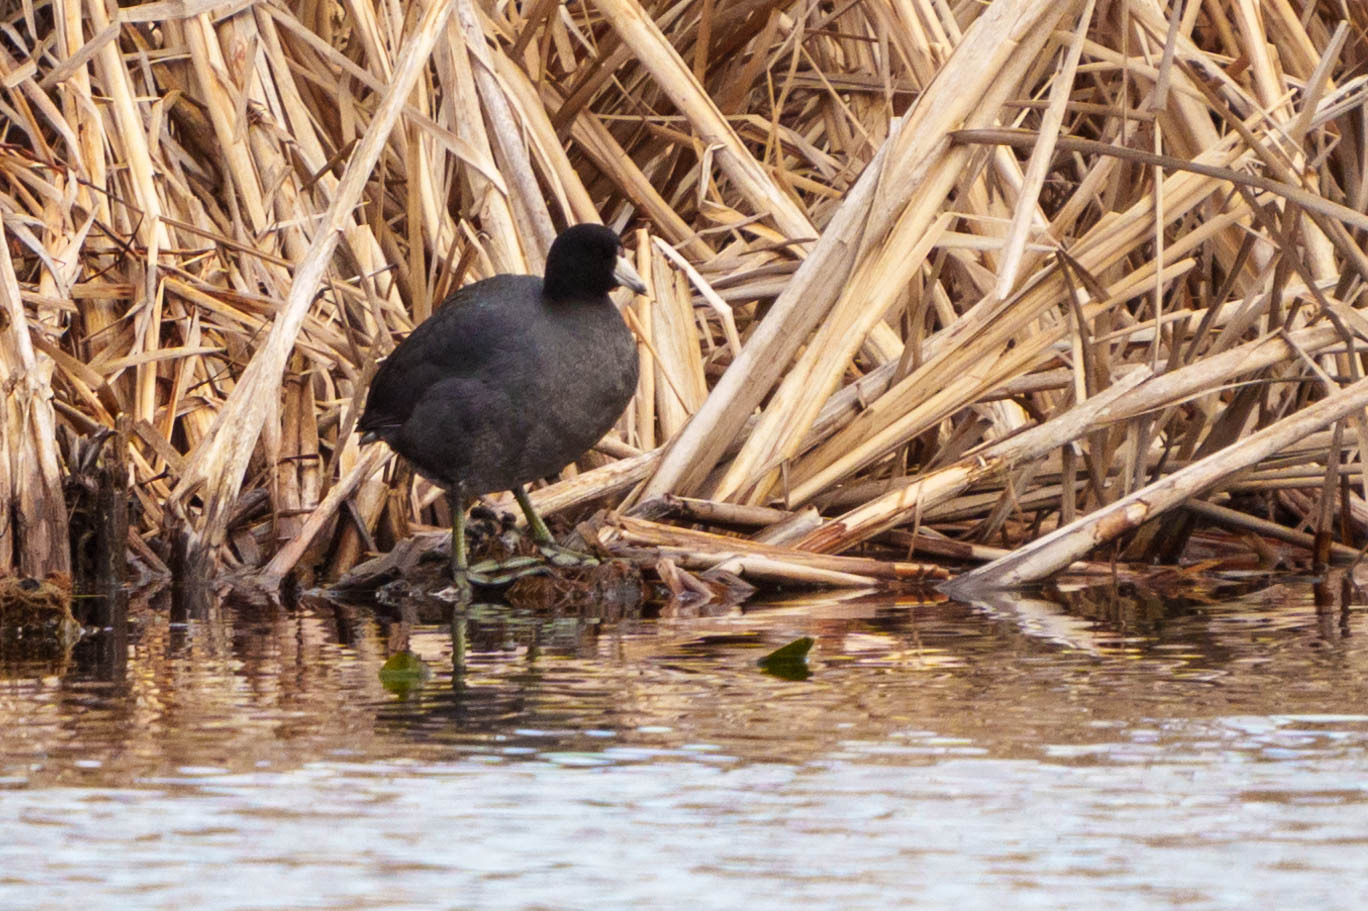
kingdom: Animalia
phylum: Chordata
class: Aves
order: Gruiformes
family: Rallidae
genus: Fulica
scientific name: Fulica americana
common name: American coot
